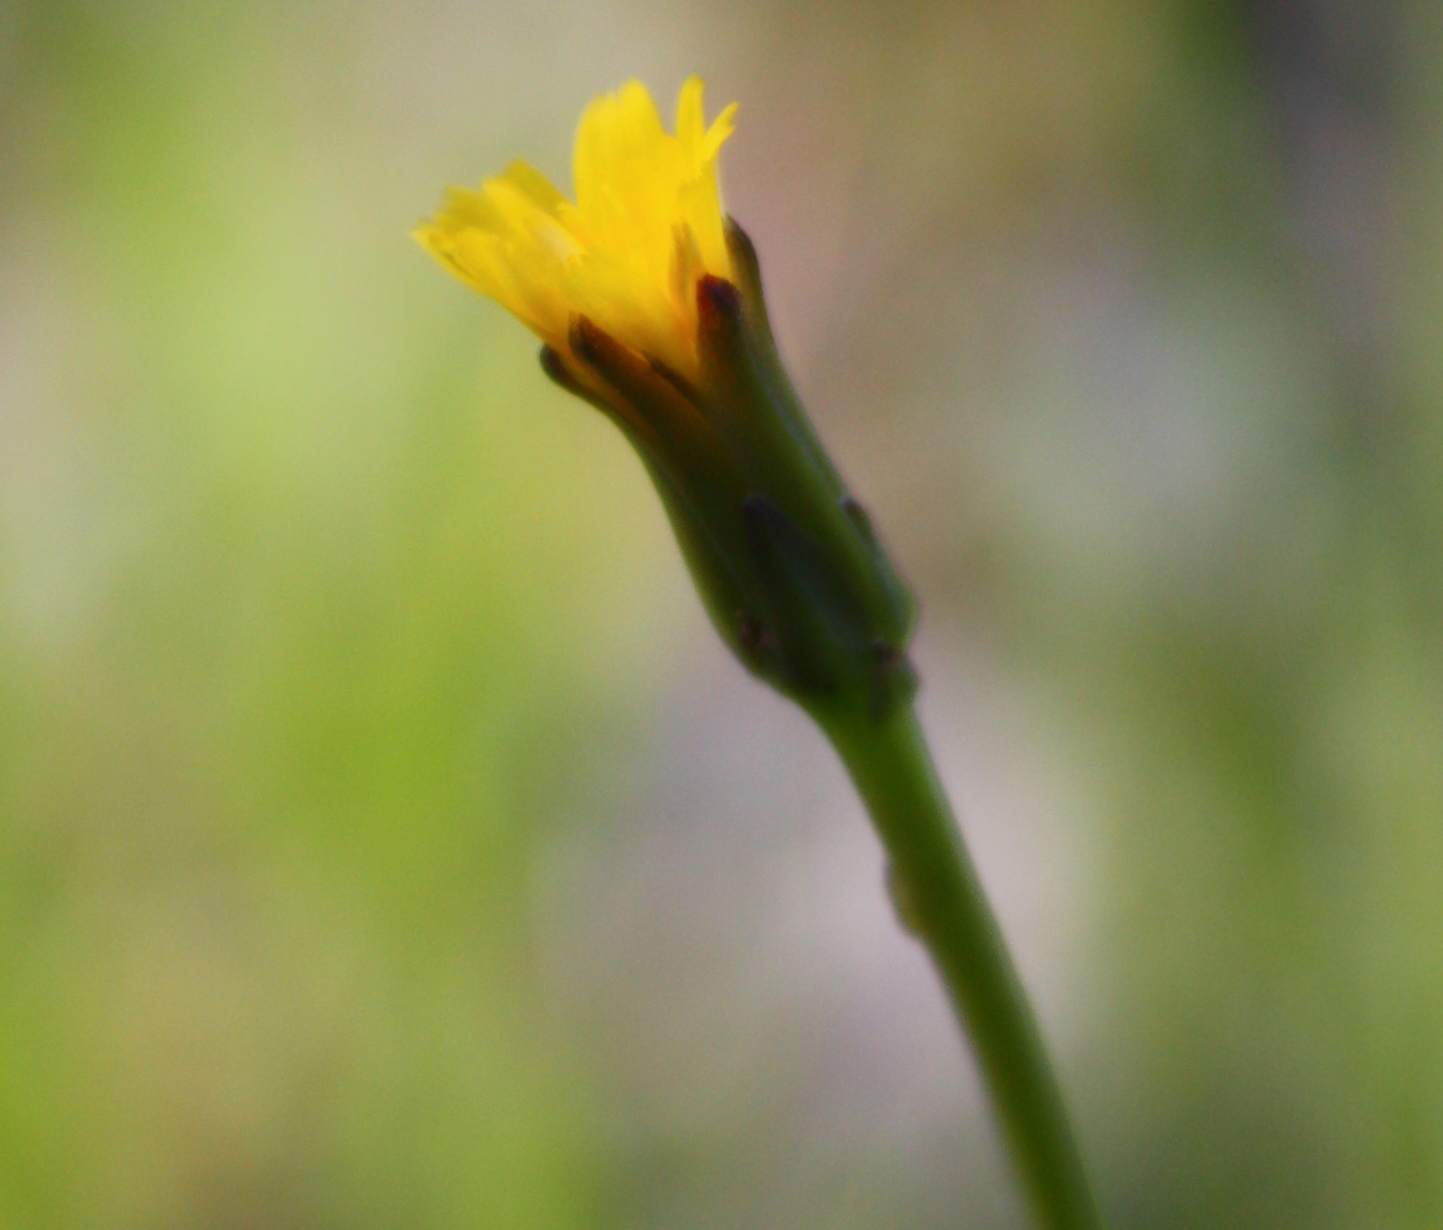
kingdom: Plantae
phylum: Tracheophyta
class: Magnoliopsida
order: Asterales
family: Asteraceae
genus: Hypochaeris
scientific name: Hypochaeris glabra
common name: Smooth catsear
